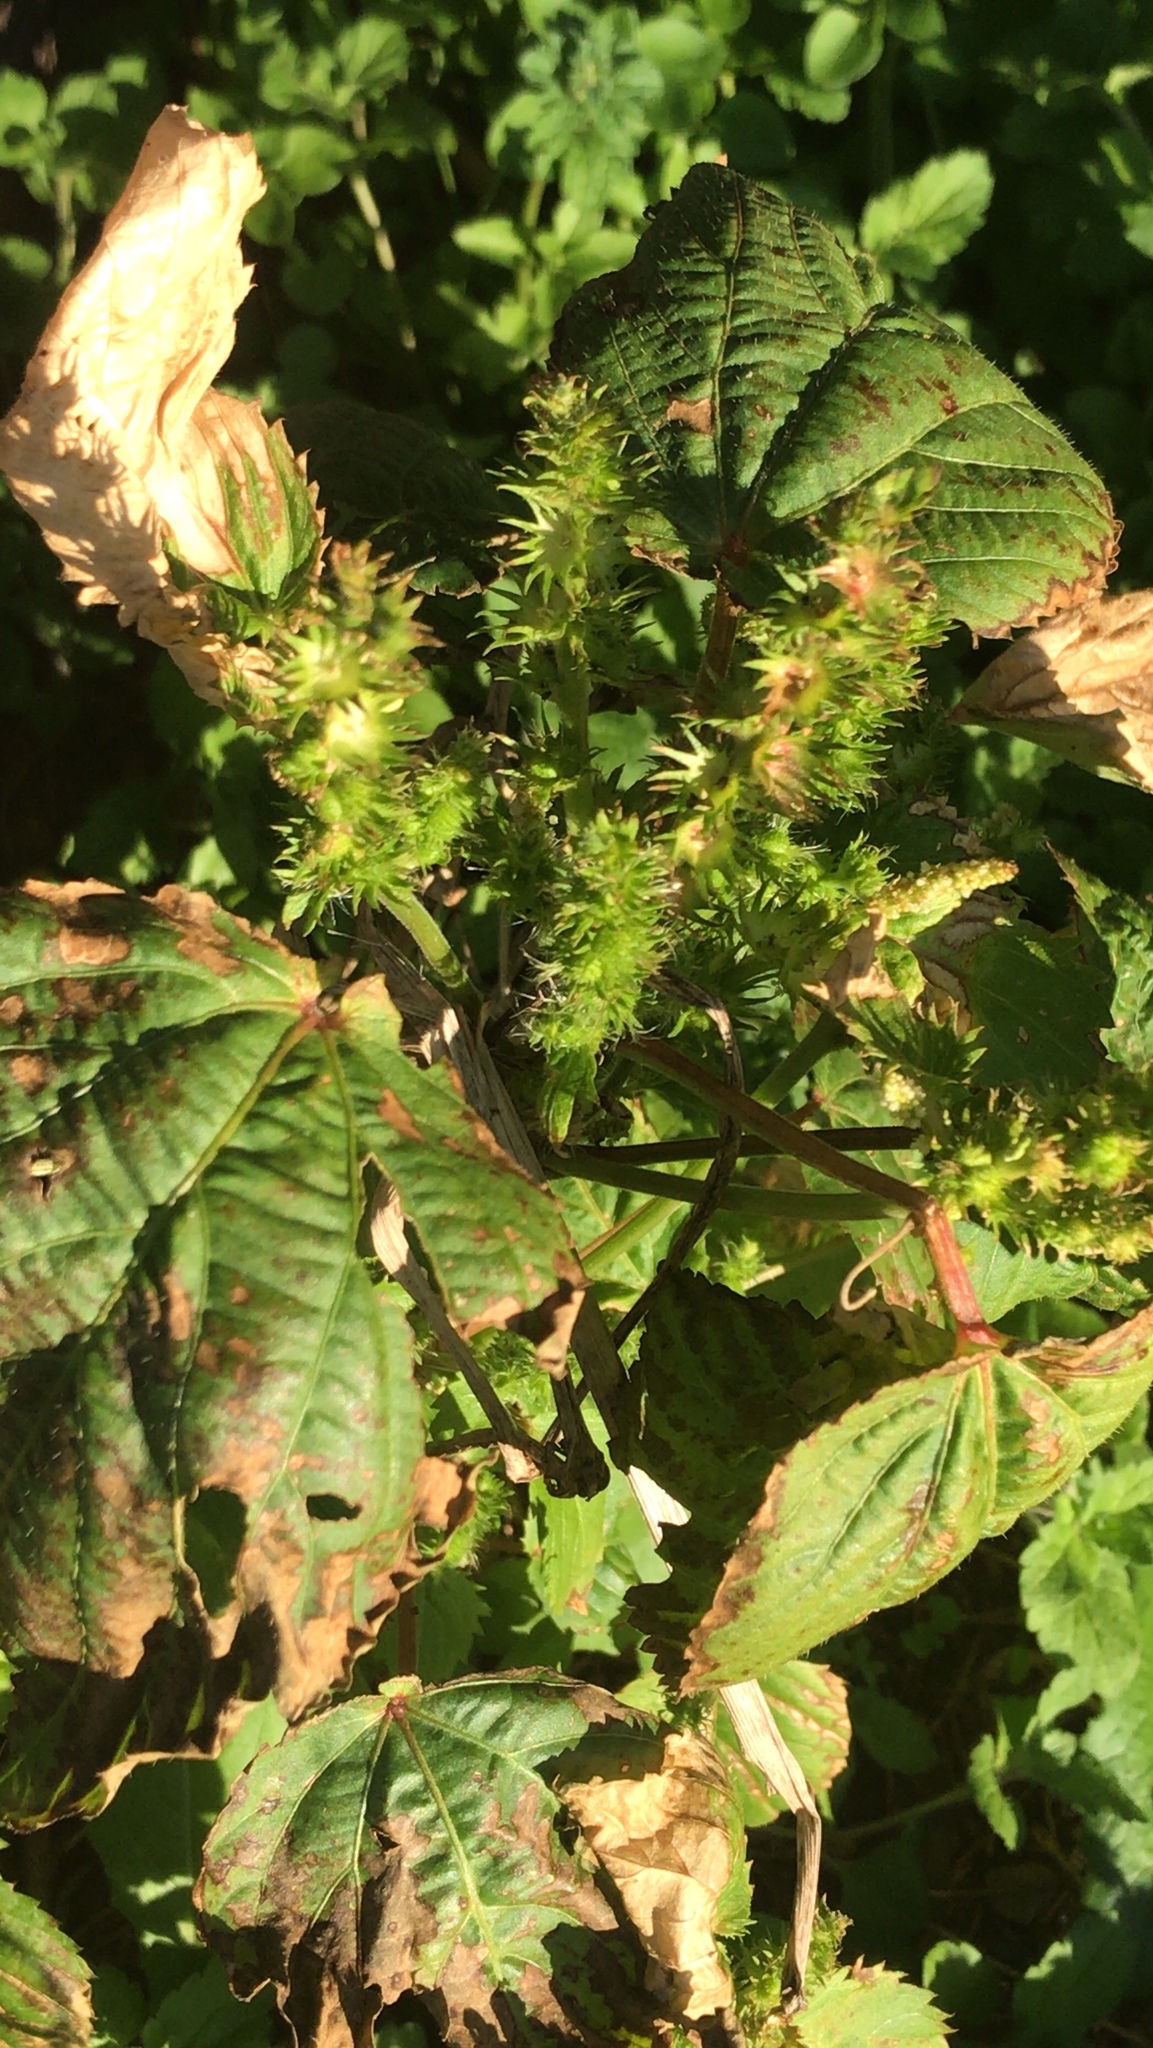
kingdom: Plantae
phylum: Tracheophyta
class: Magnoliopsida
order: Malpighiales
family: Euphorbiaceae
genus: Acalypha
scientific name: Acalypha ostryifolia
